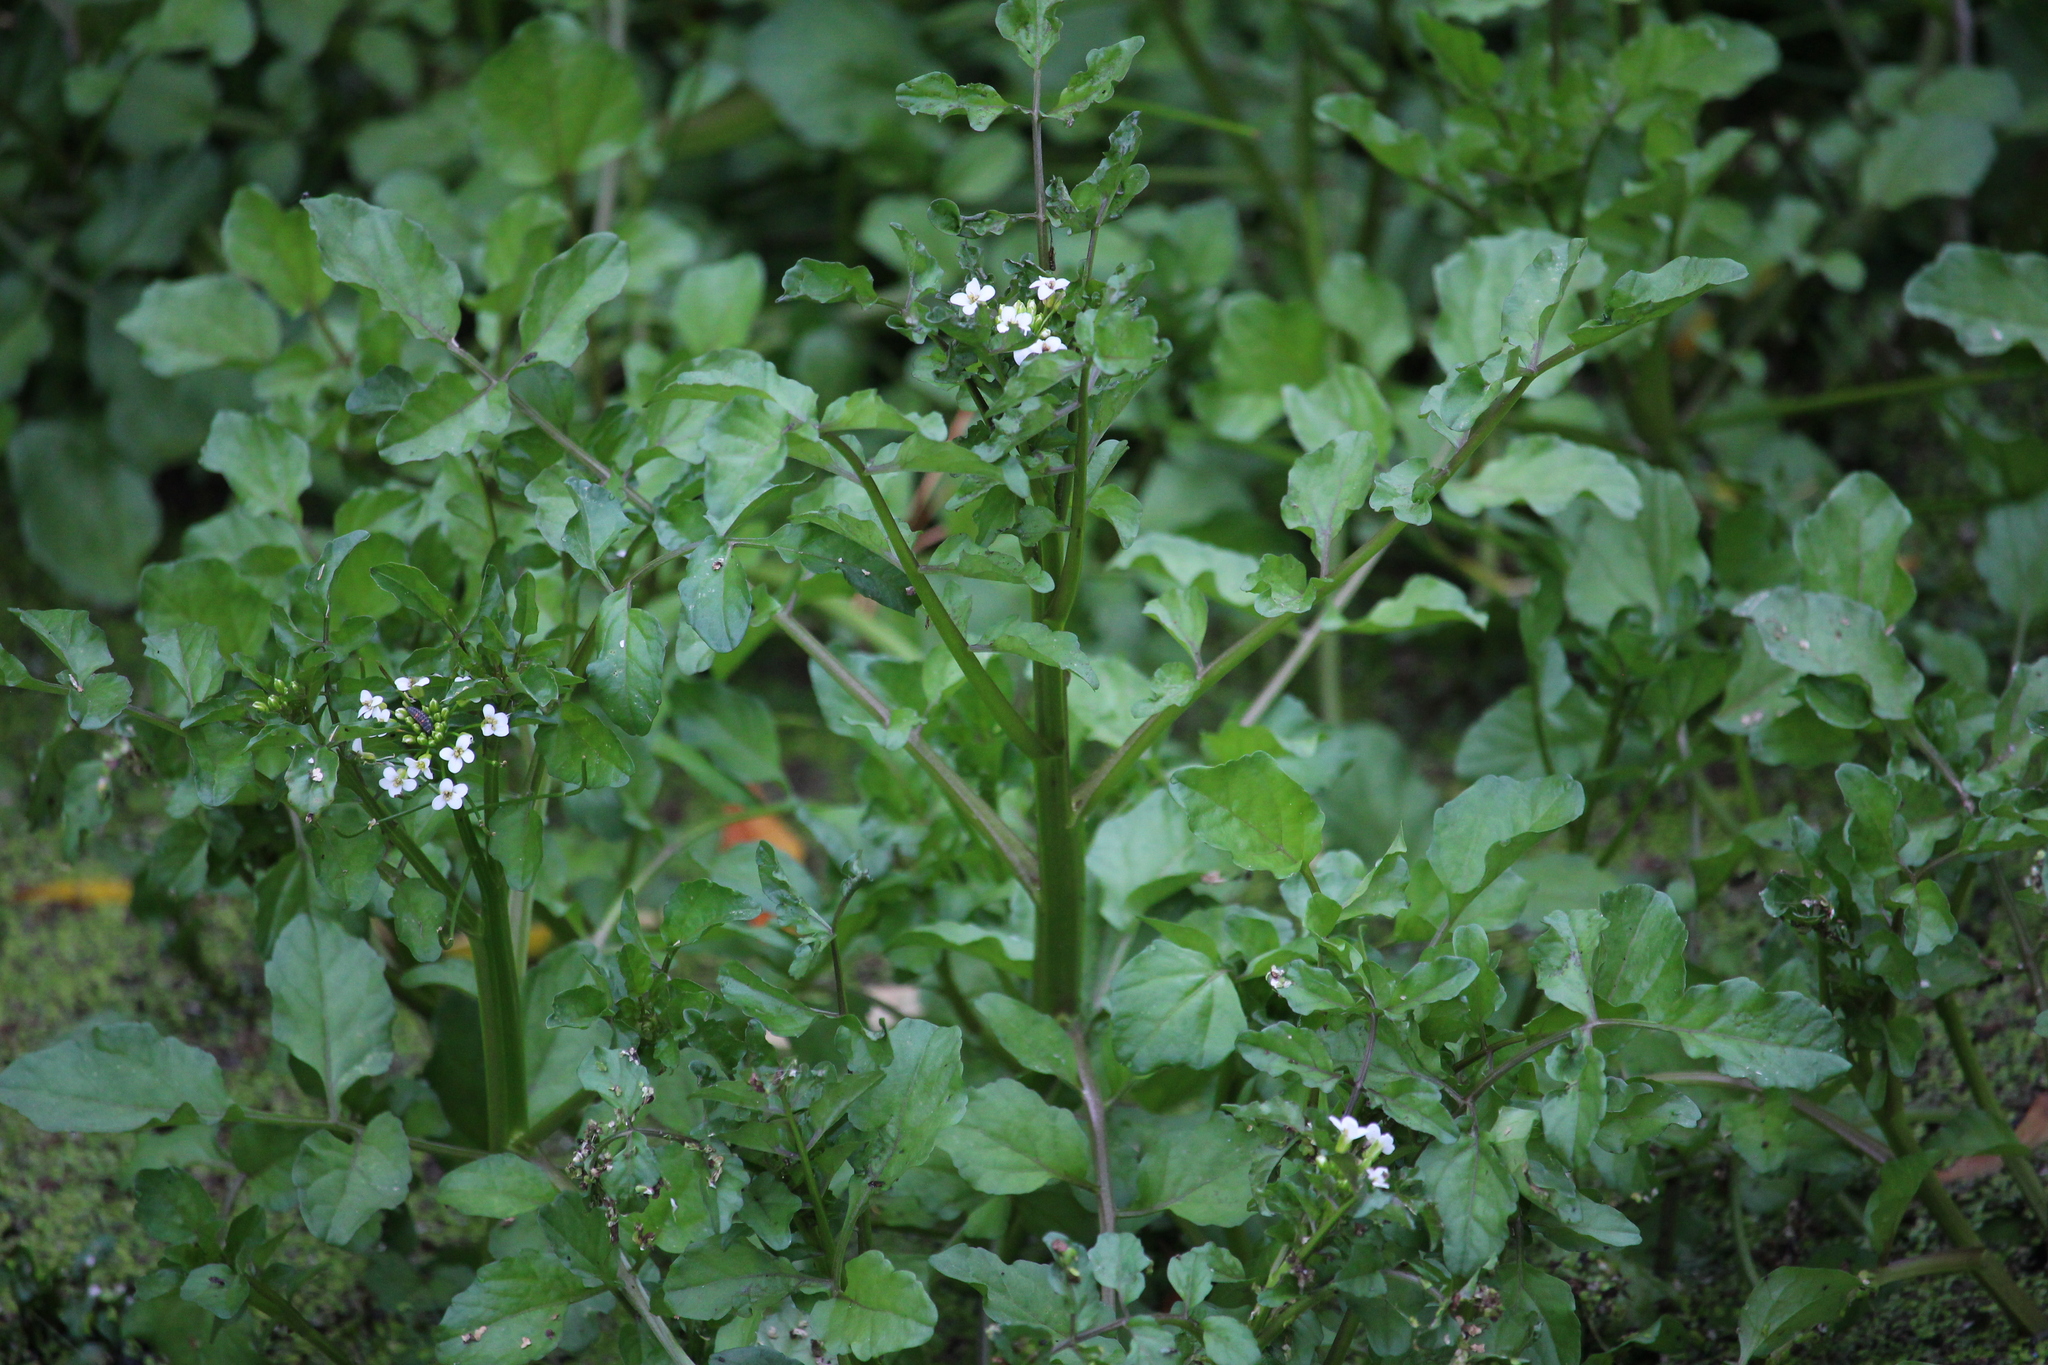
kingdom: Plantae
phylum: Tracheophyta
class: Magnoliopsida
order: Brassicales
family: Brassicaceae
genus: Nasturtium
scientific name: Nasturtium microphyllum
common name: Onerow yellowcress
